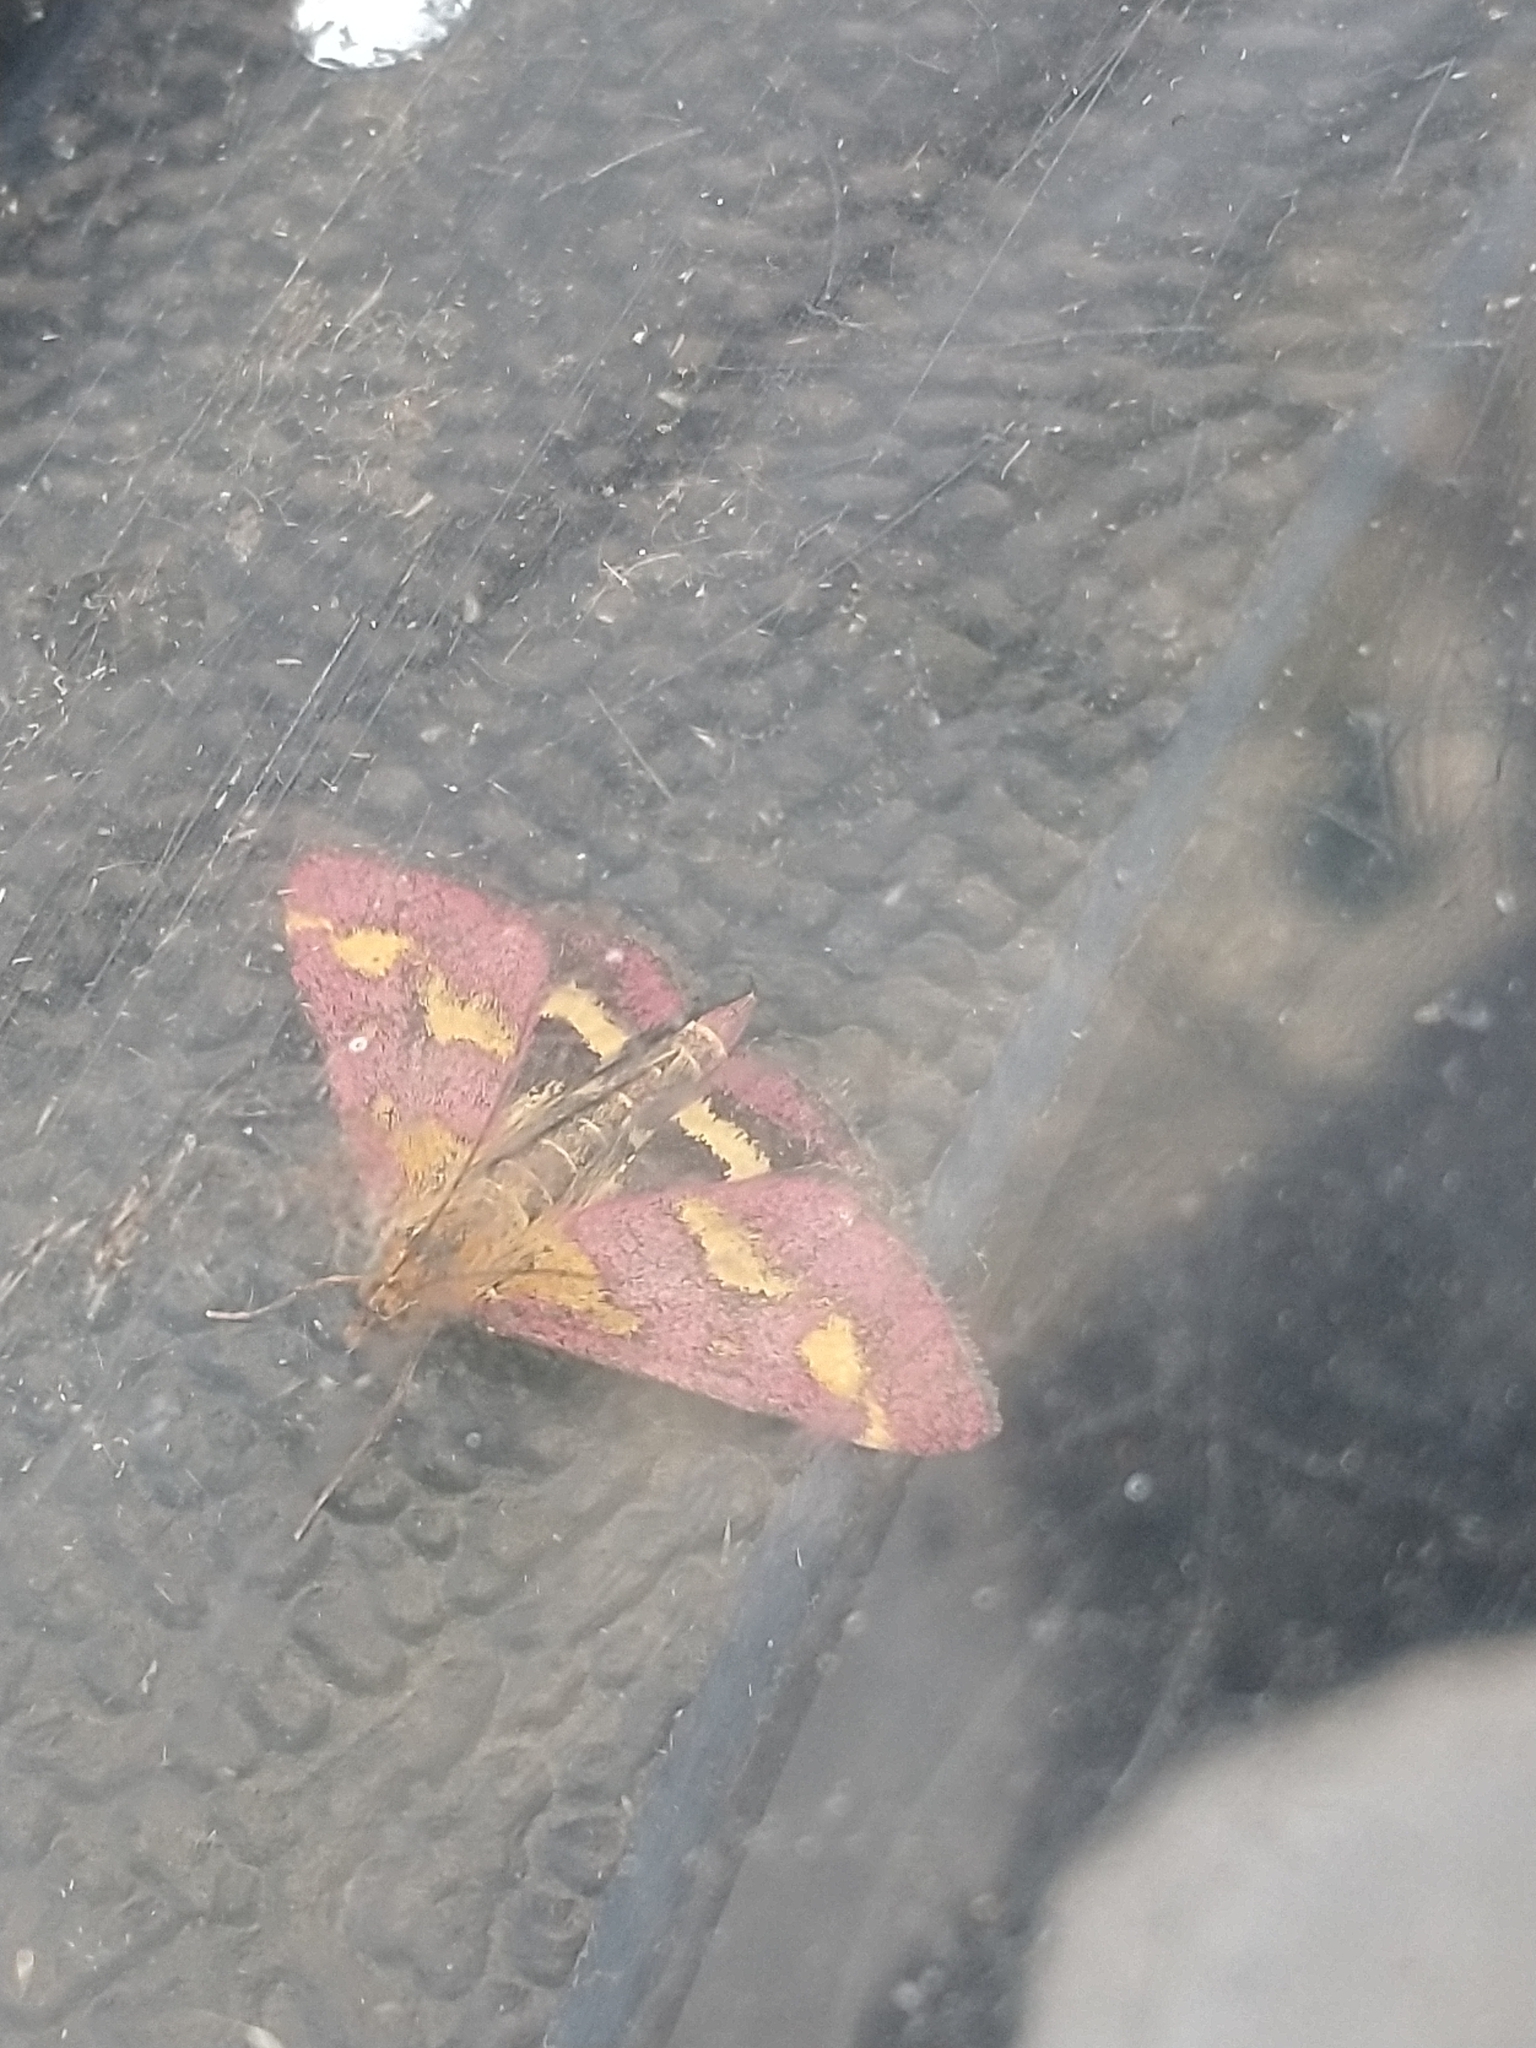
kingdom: Animalia
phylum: Arthropoda
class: Insecta
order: Lepidoptera
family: Crambidae
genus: Pyrausta
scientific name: Pyrausta purpuralis
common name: Common purple & gold
